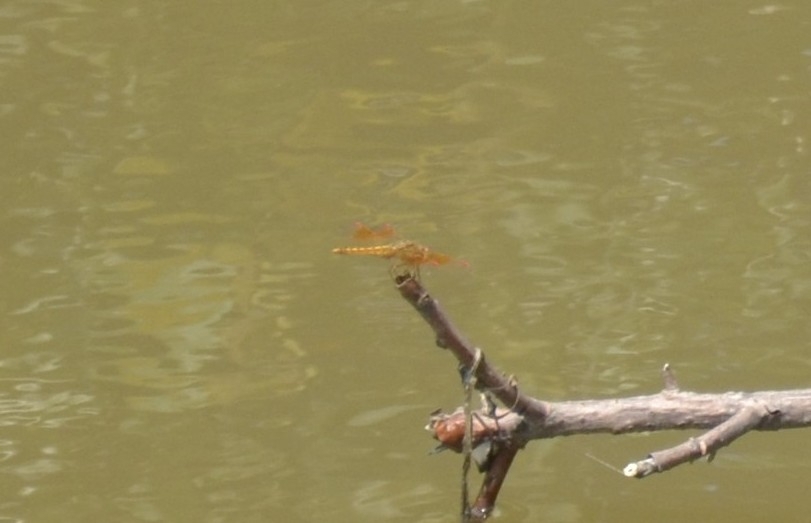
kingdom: Animalia
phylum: Arthropoda
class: Insecta
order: Odonata
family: Libellulidae
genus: Brachythemis
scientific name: Brachythemis contaminata
